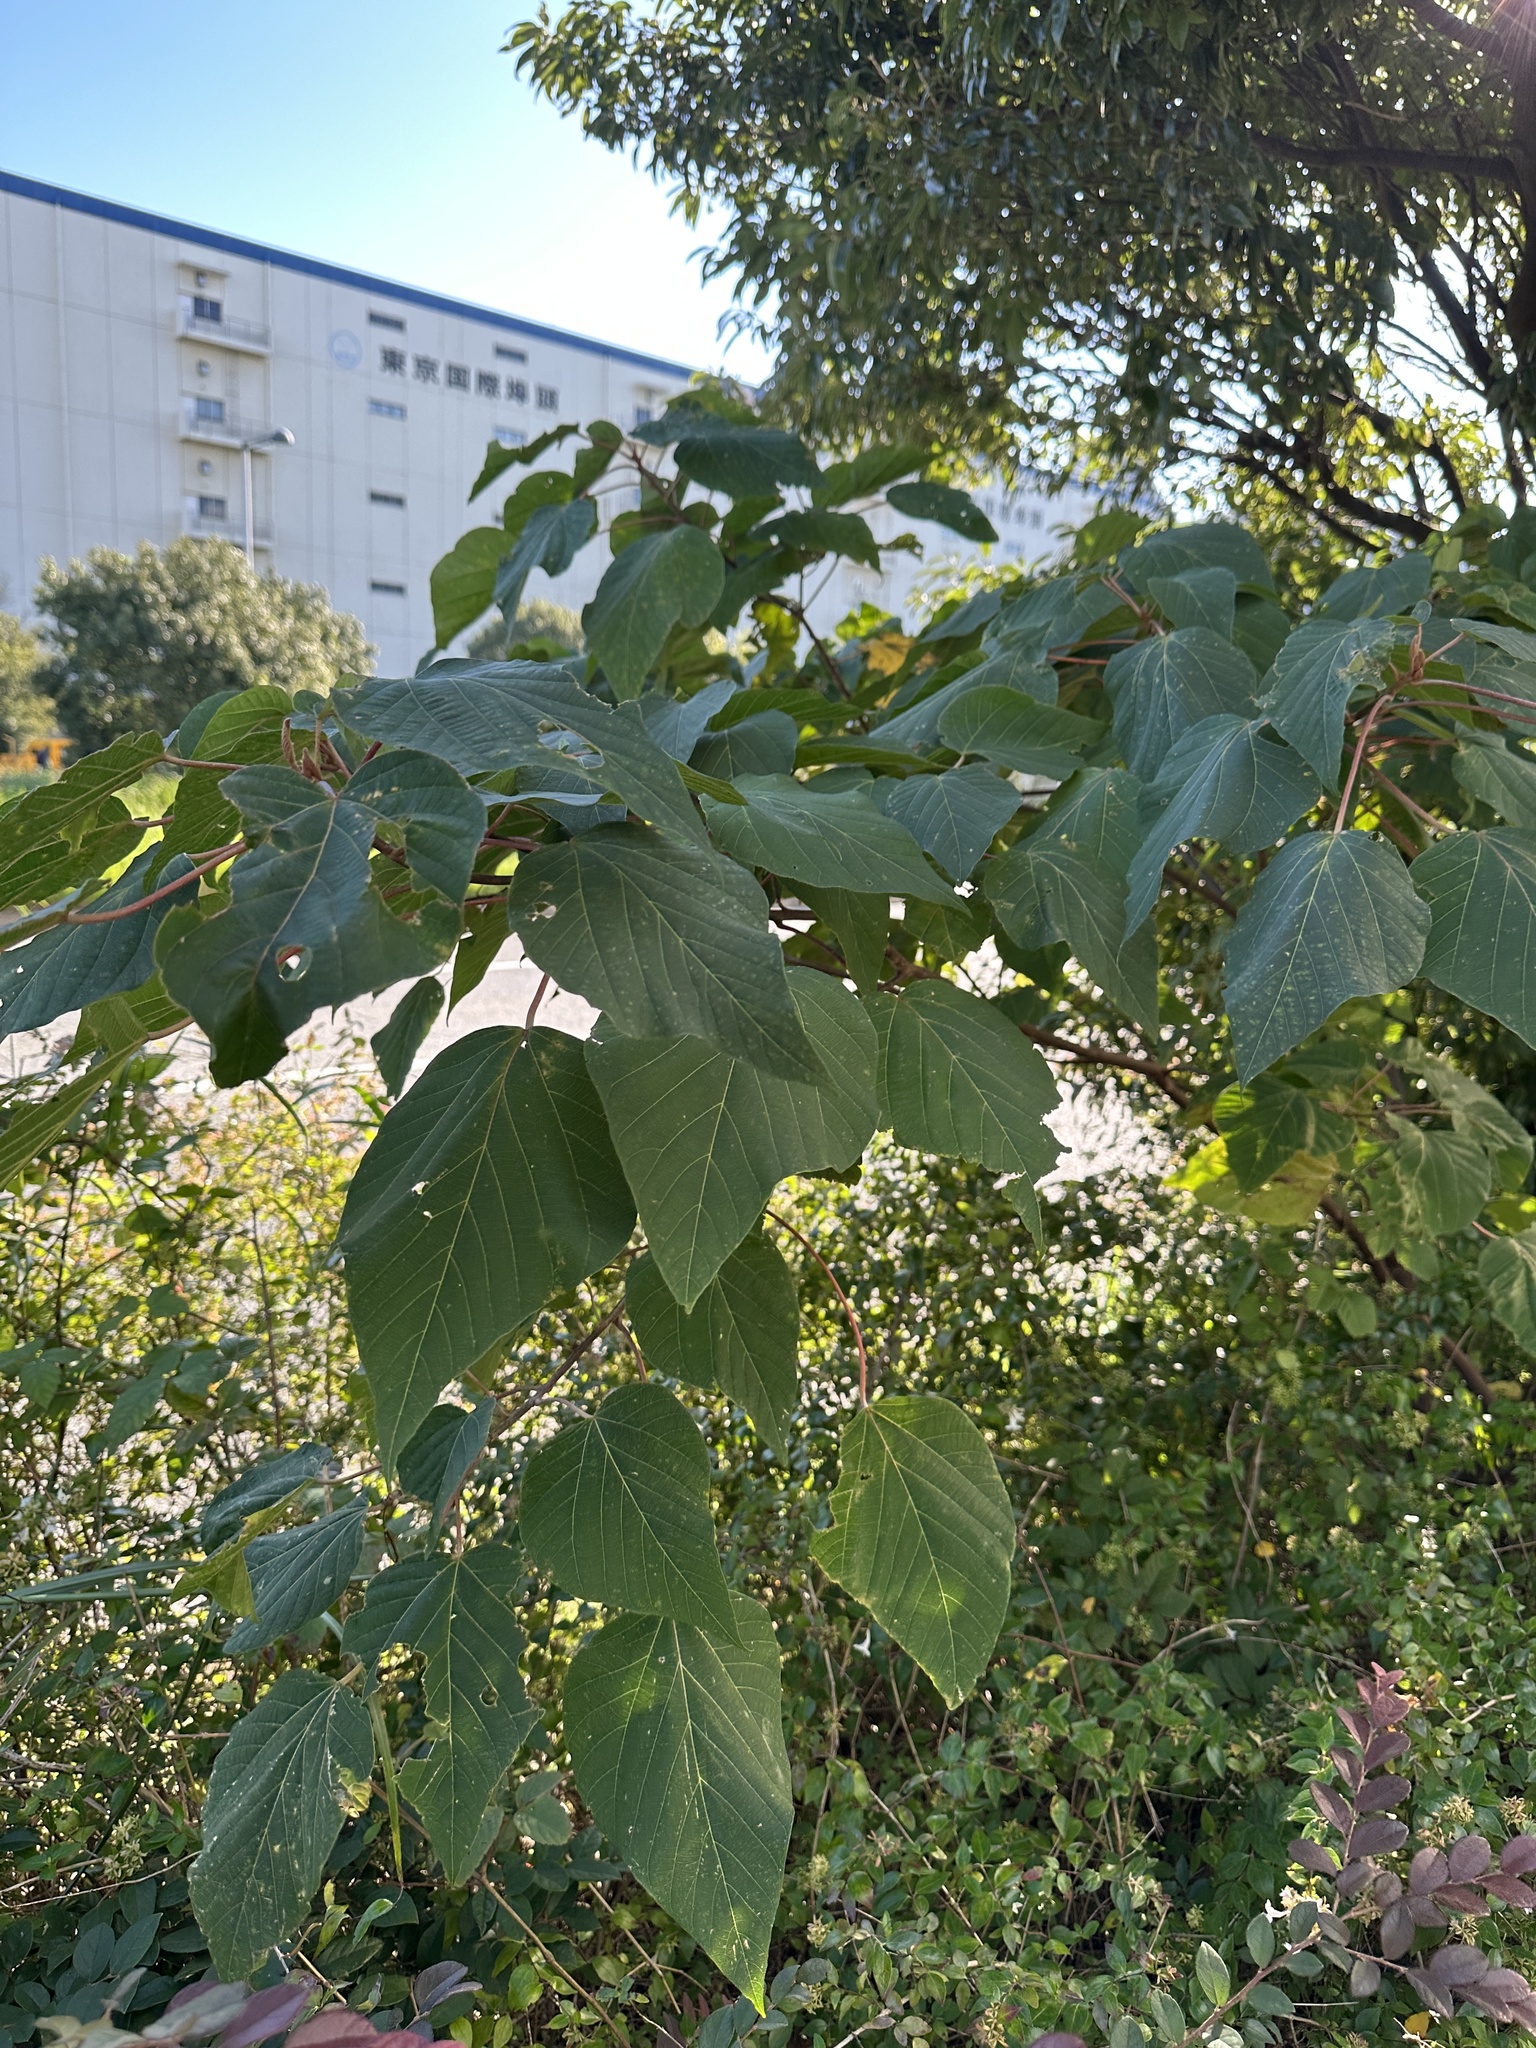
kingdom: Plantae
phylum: Tracheophyta
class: Magnoliopsida
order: Malpighiales
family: Euphorbiaceae
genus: Mallotus
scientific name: Mallotus japonicus
